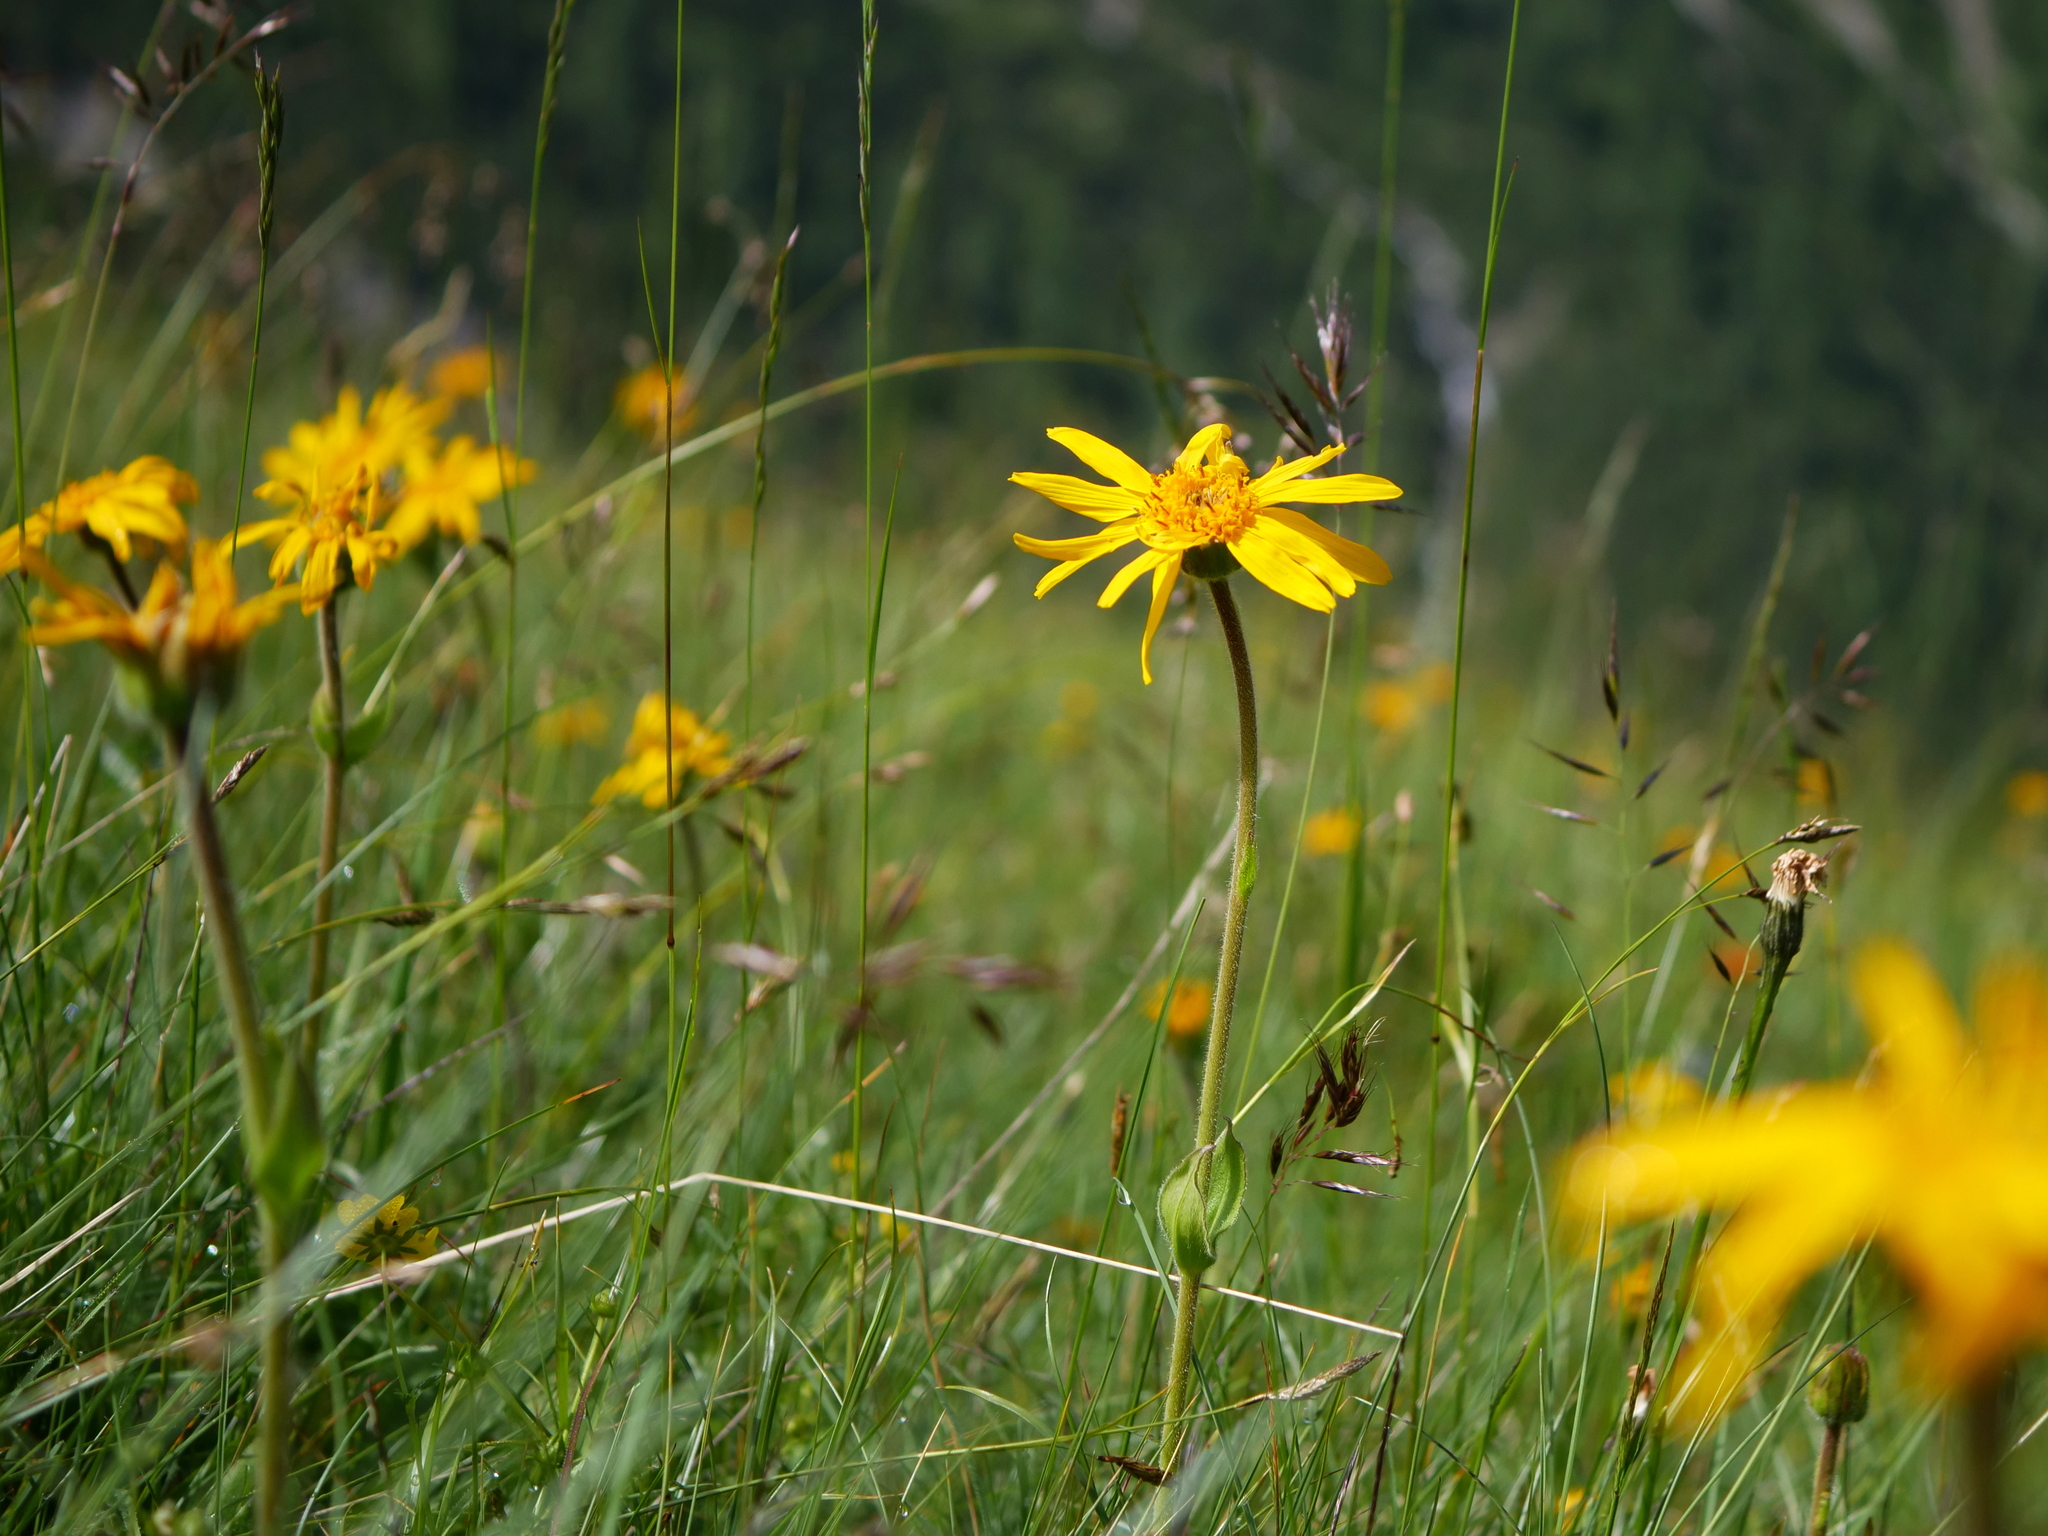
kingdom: Plantae
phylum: Tracheophyta
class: Magnoliopsida
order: Asterales
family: Asteraceae
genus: Arnica
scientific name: Arnica montana
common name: Leopard's bane
